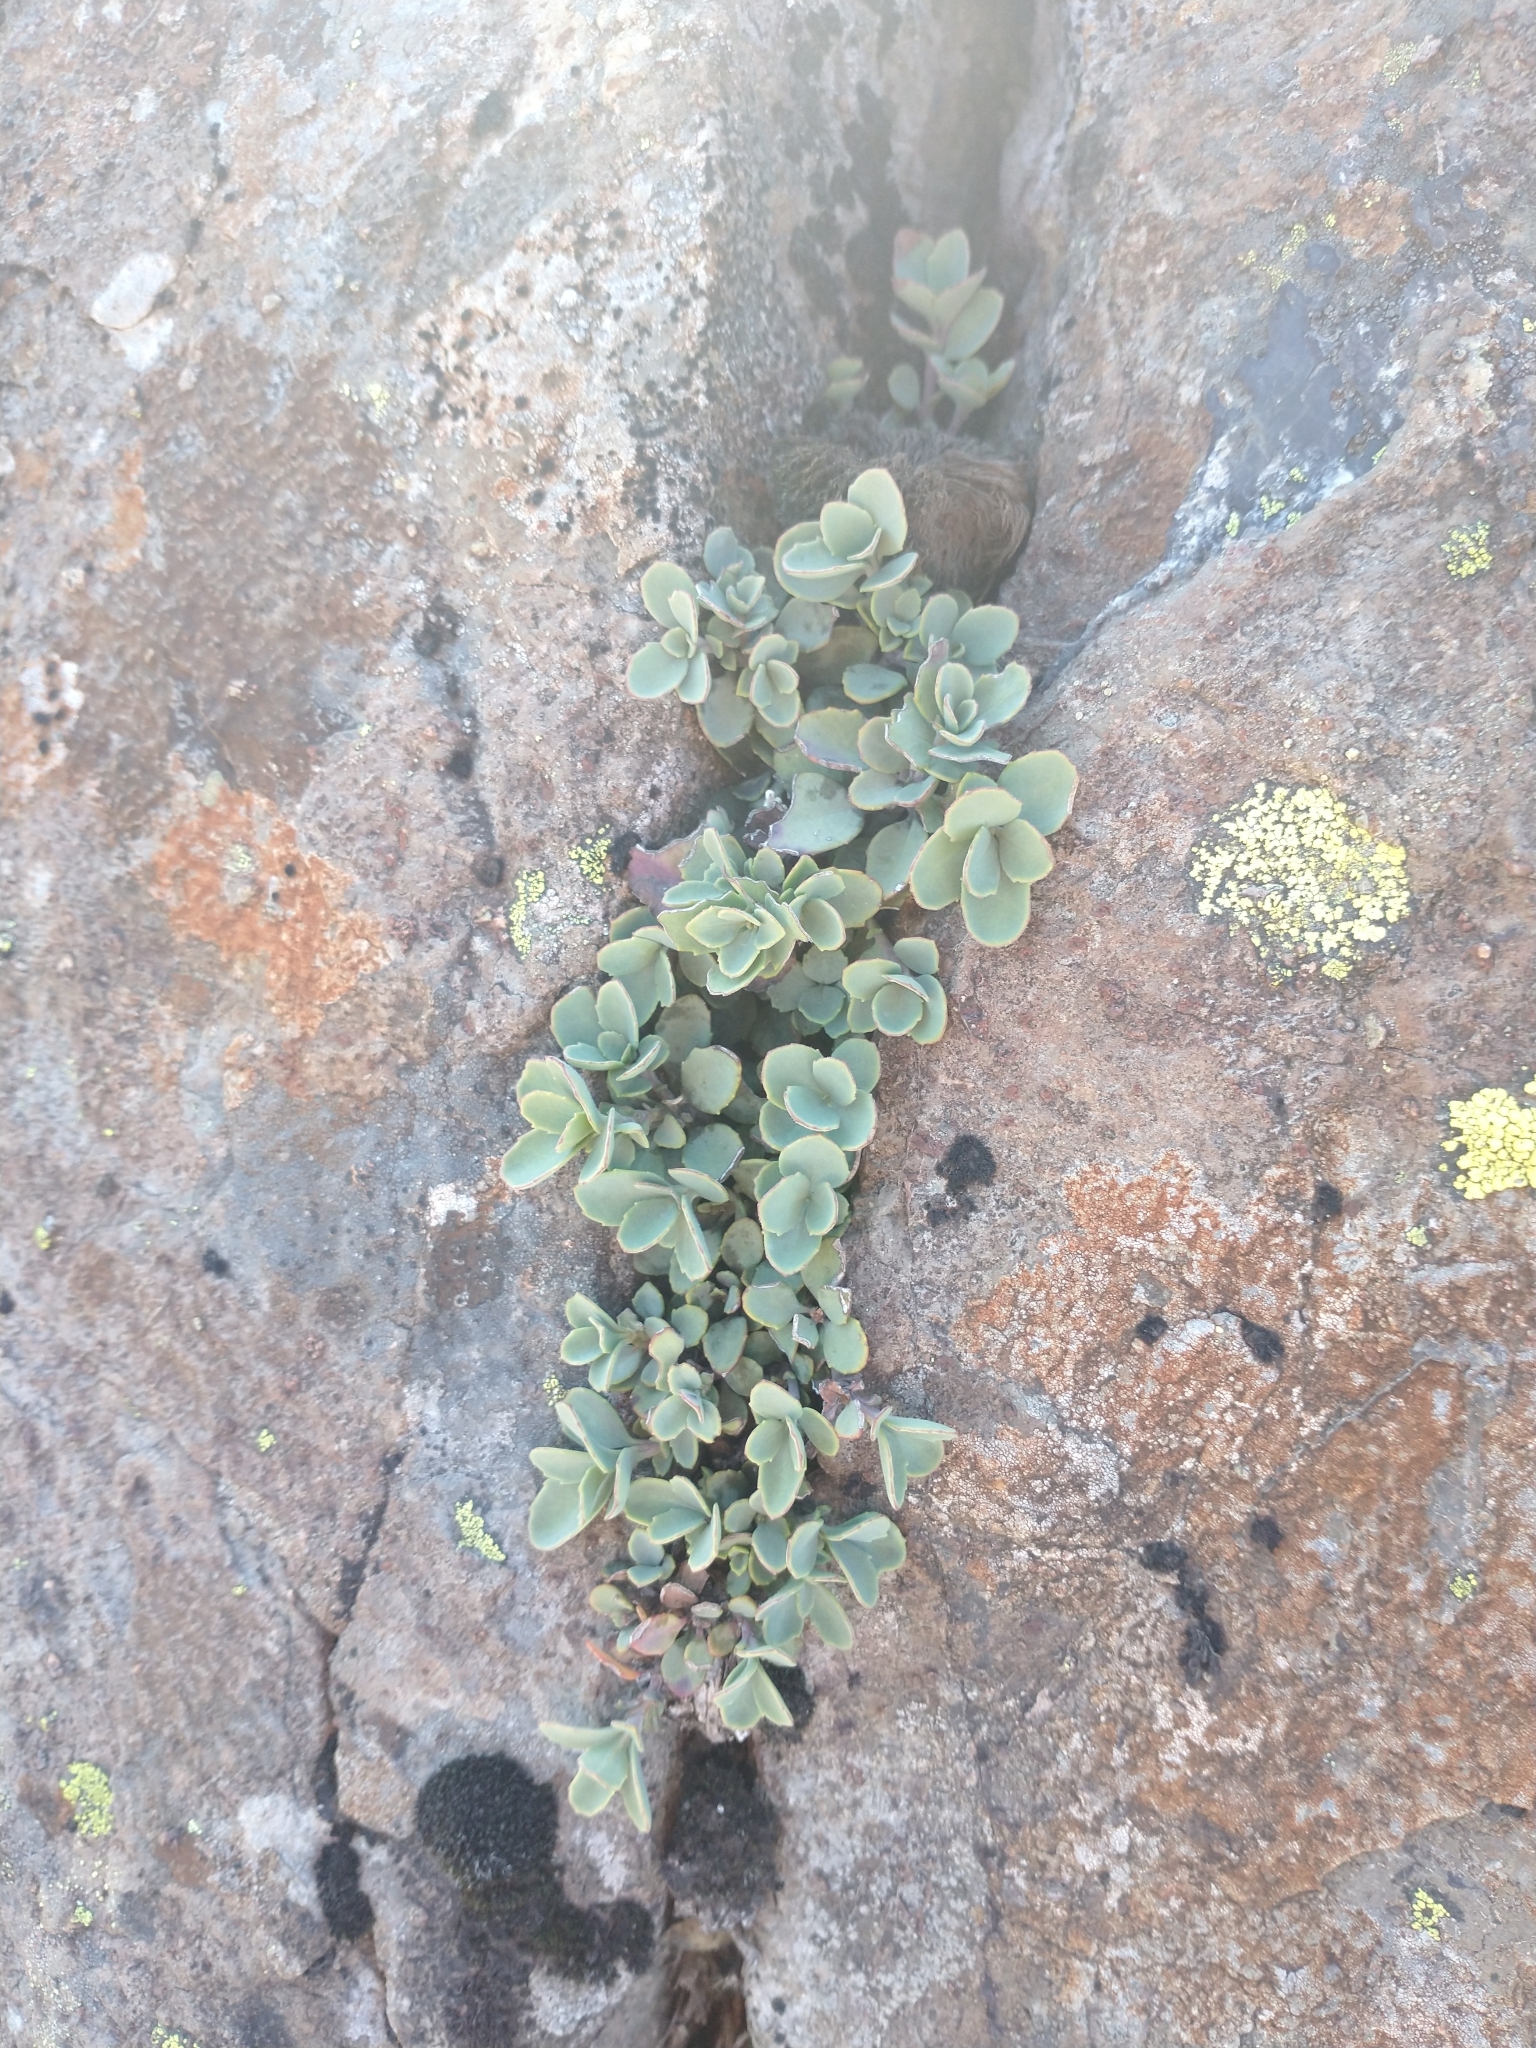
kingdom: Plantae
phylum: Tracheophyta
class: Magnoliopsida
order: Lamiales
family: Plantaginaceae
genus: Penstemon
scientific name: Penstemon rupicola
